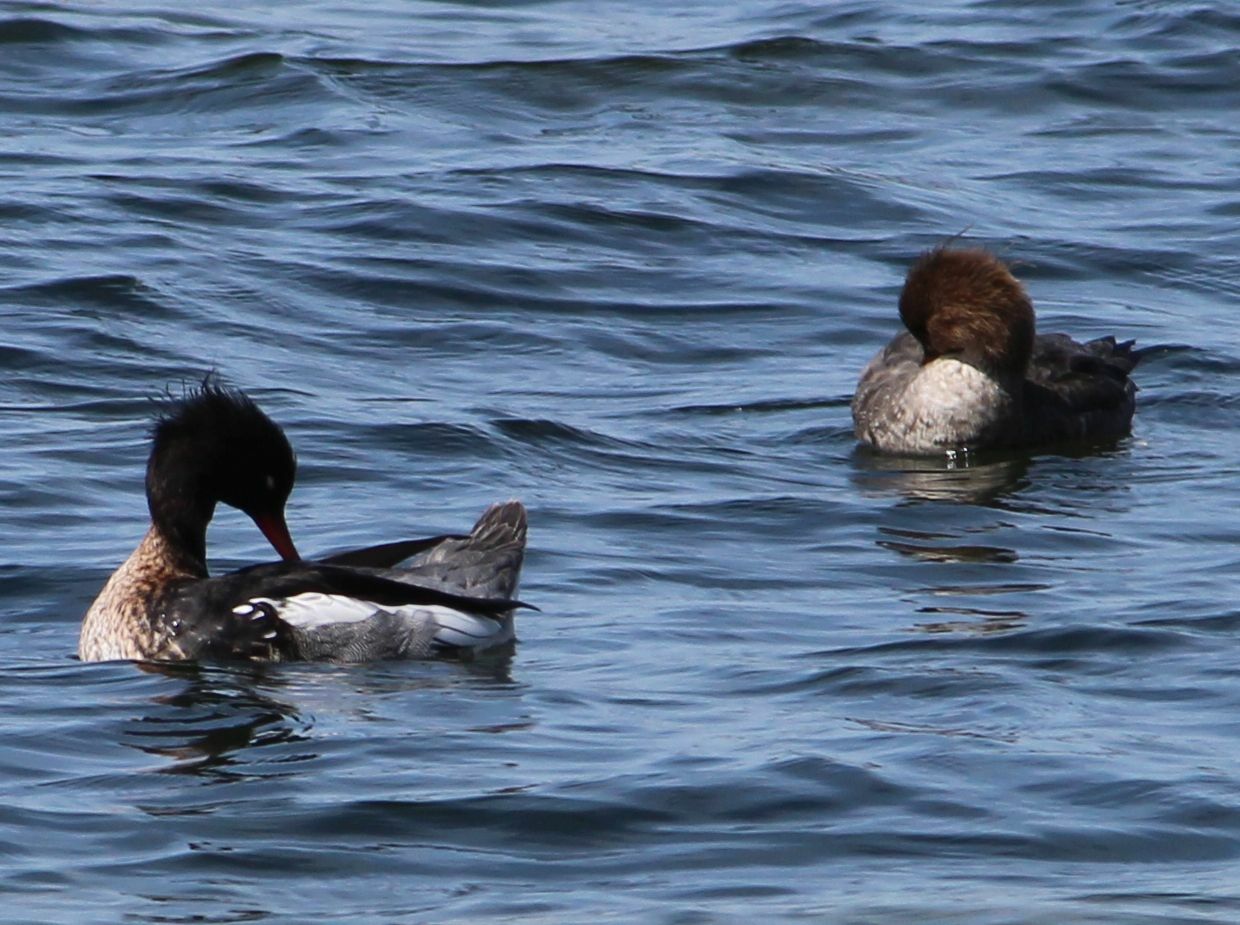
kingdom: Animalia
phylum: Chordata
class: Aves
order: Anseriformes
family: Anatidae
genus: Mergus
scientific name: Mergus serrator
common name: Red-breasted merganser
